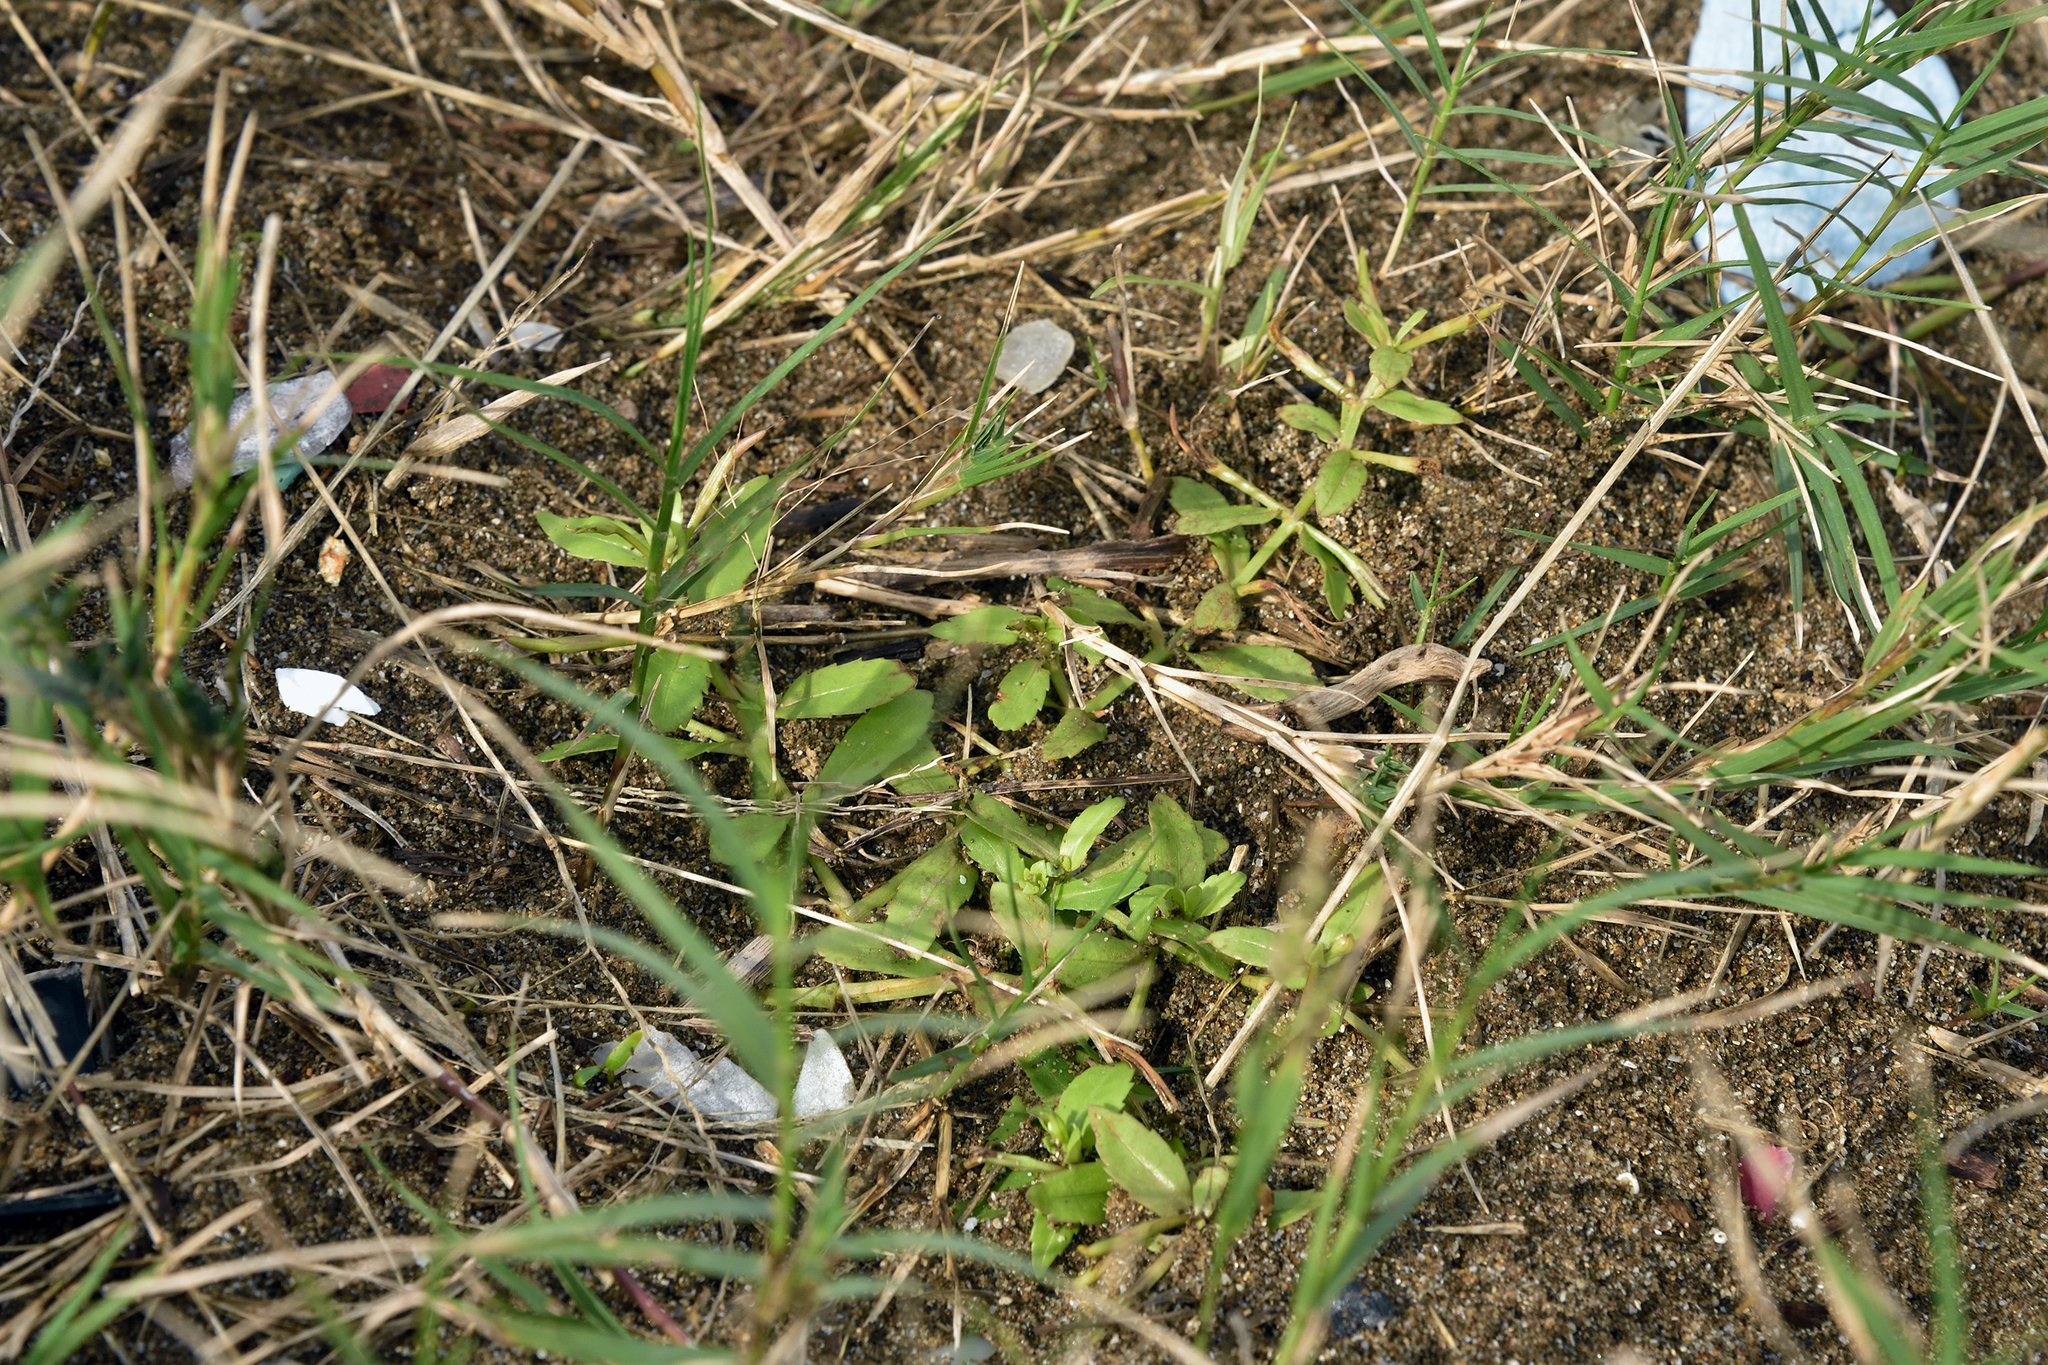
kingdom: Plantae
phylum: Tracheophyta
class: Magnoliopsida
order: Lamiales
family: Linderniaceae
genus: Bonnaya
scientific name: Bonnaya antipoda
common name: Sparrow false pimpernel
